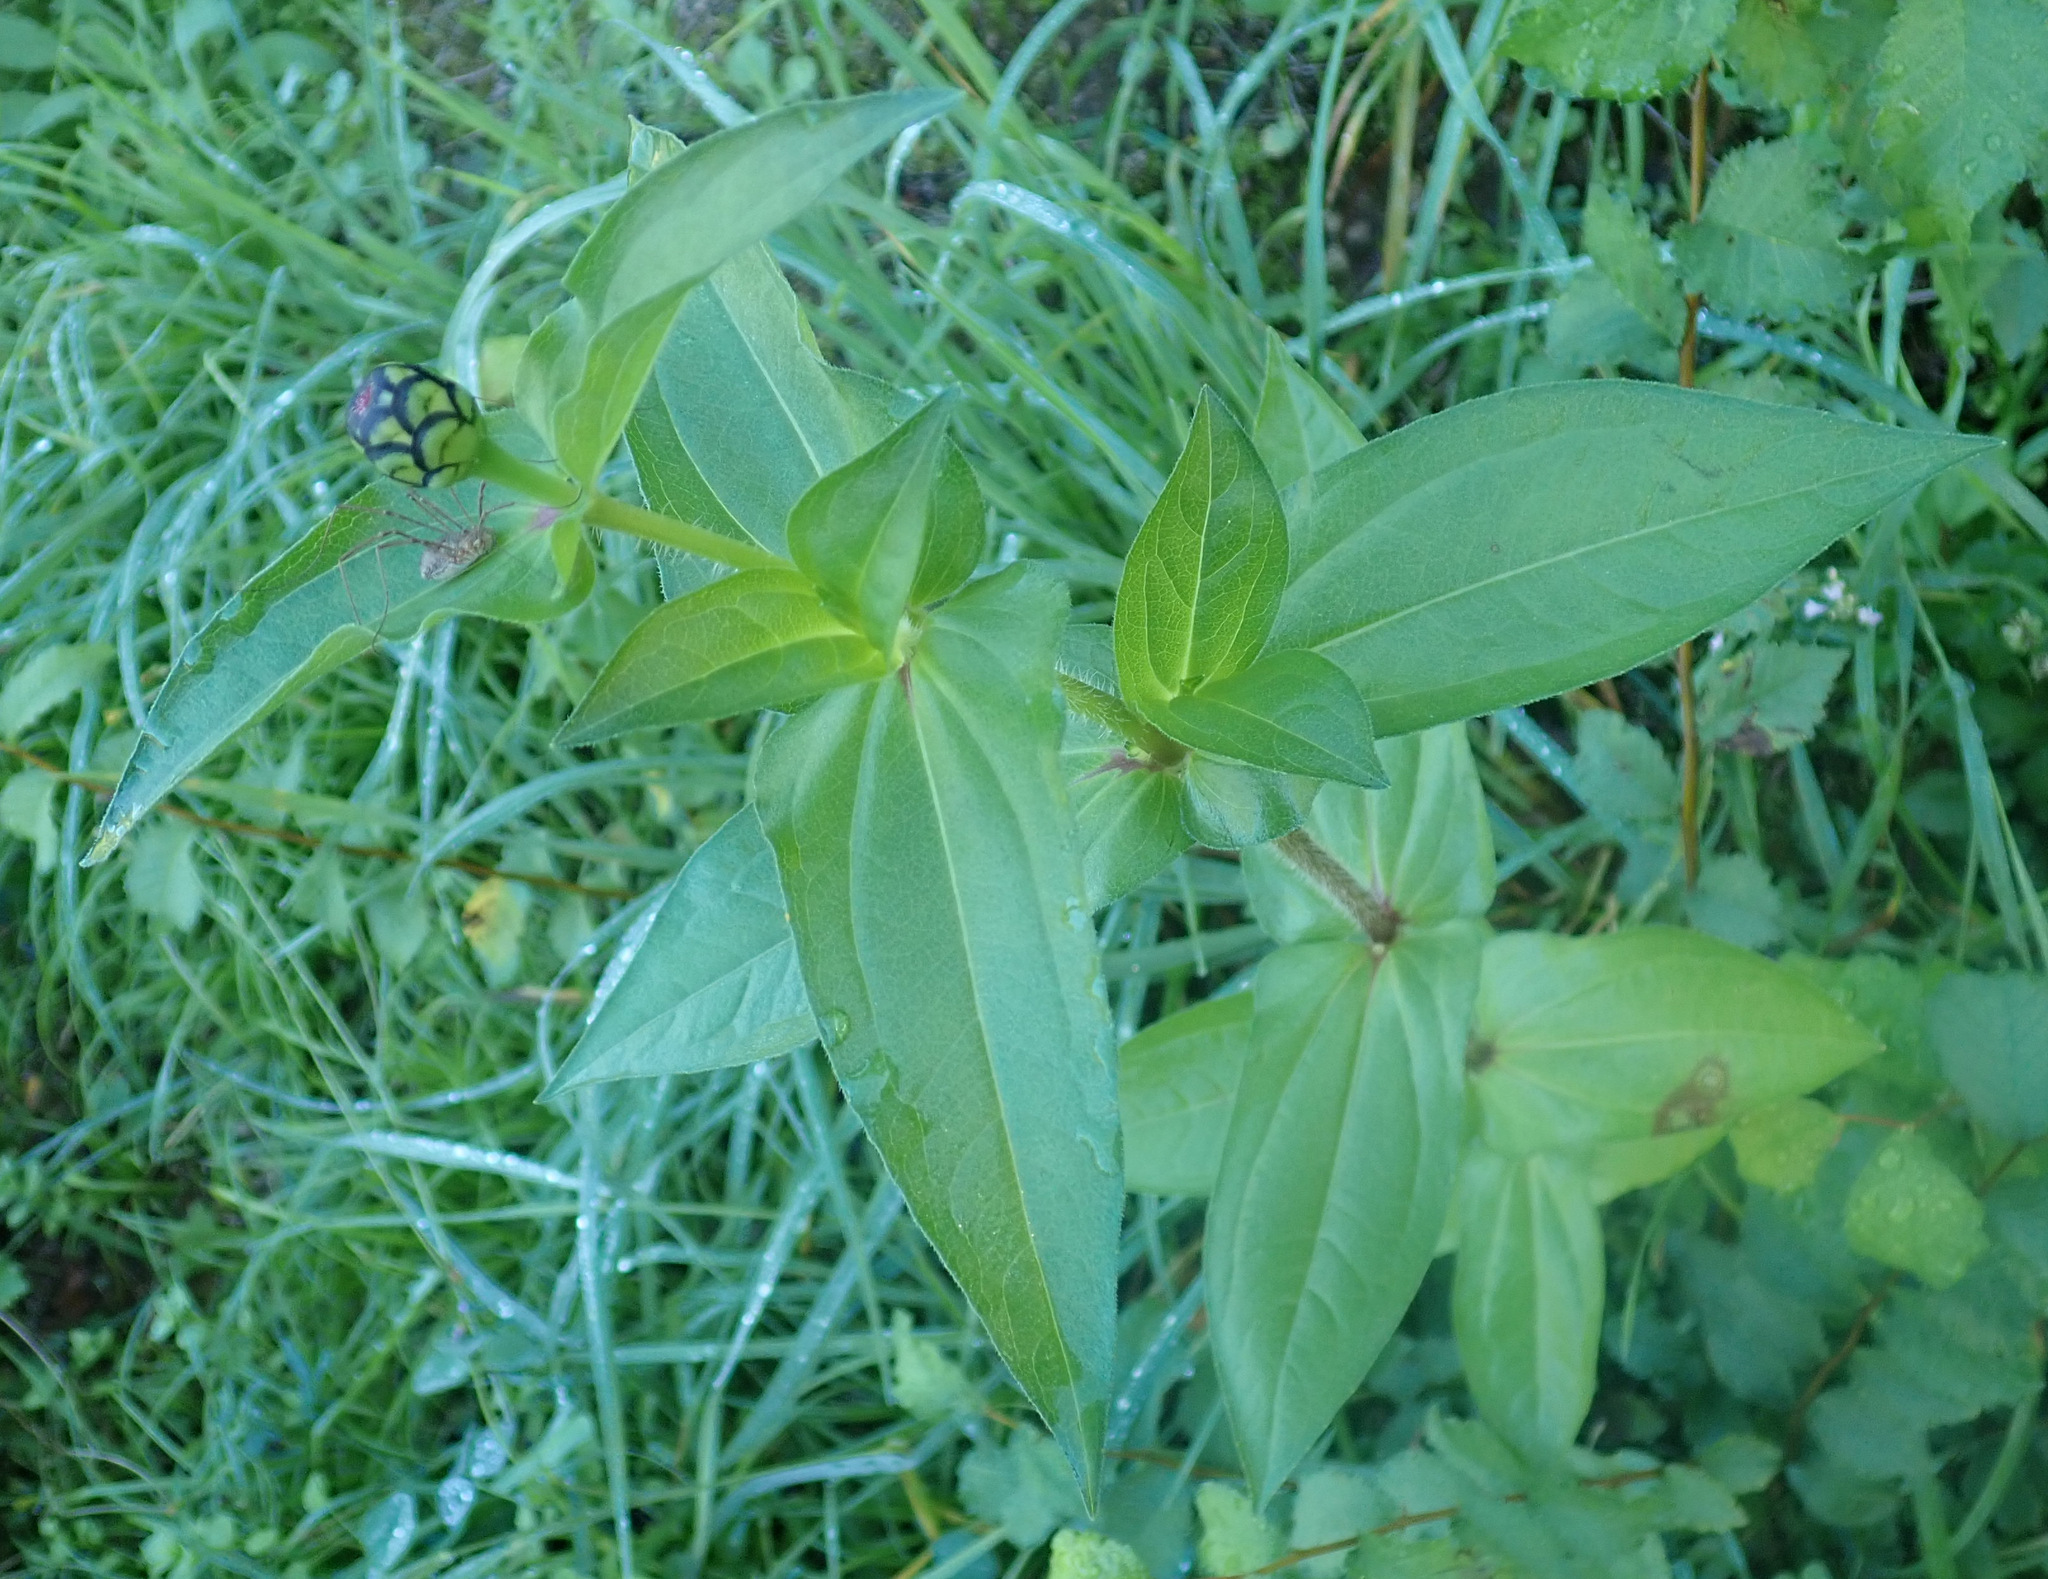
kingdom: Plantae
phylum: Tracheophyta
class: Magnoliopsida
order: Asterales
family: Asteraceae
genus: Zinnia
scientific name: Zinnia elegans
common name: Youth-and-age
